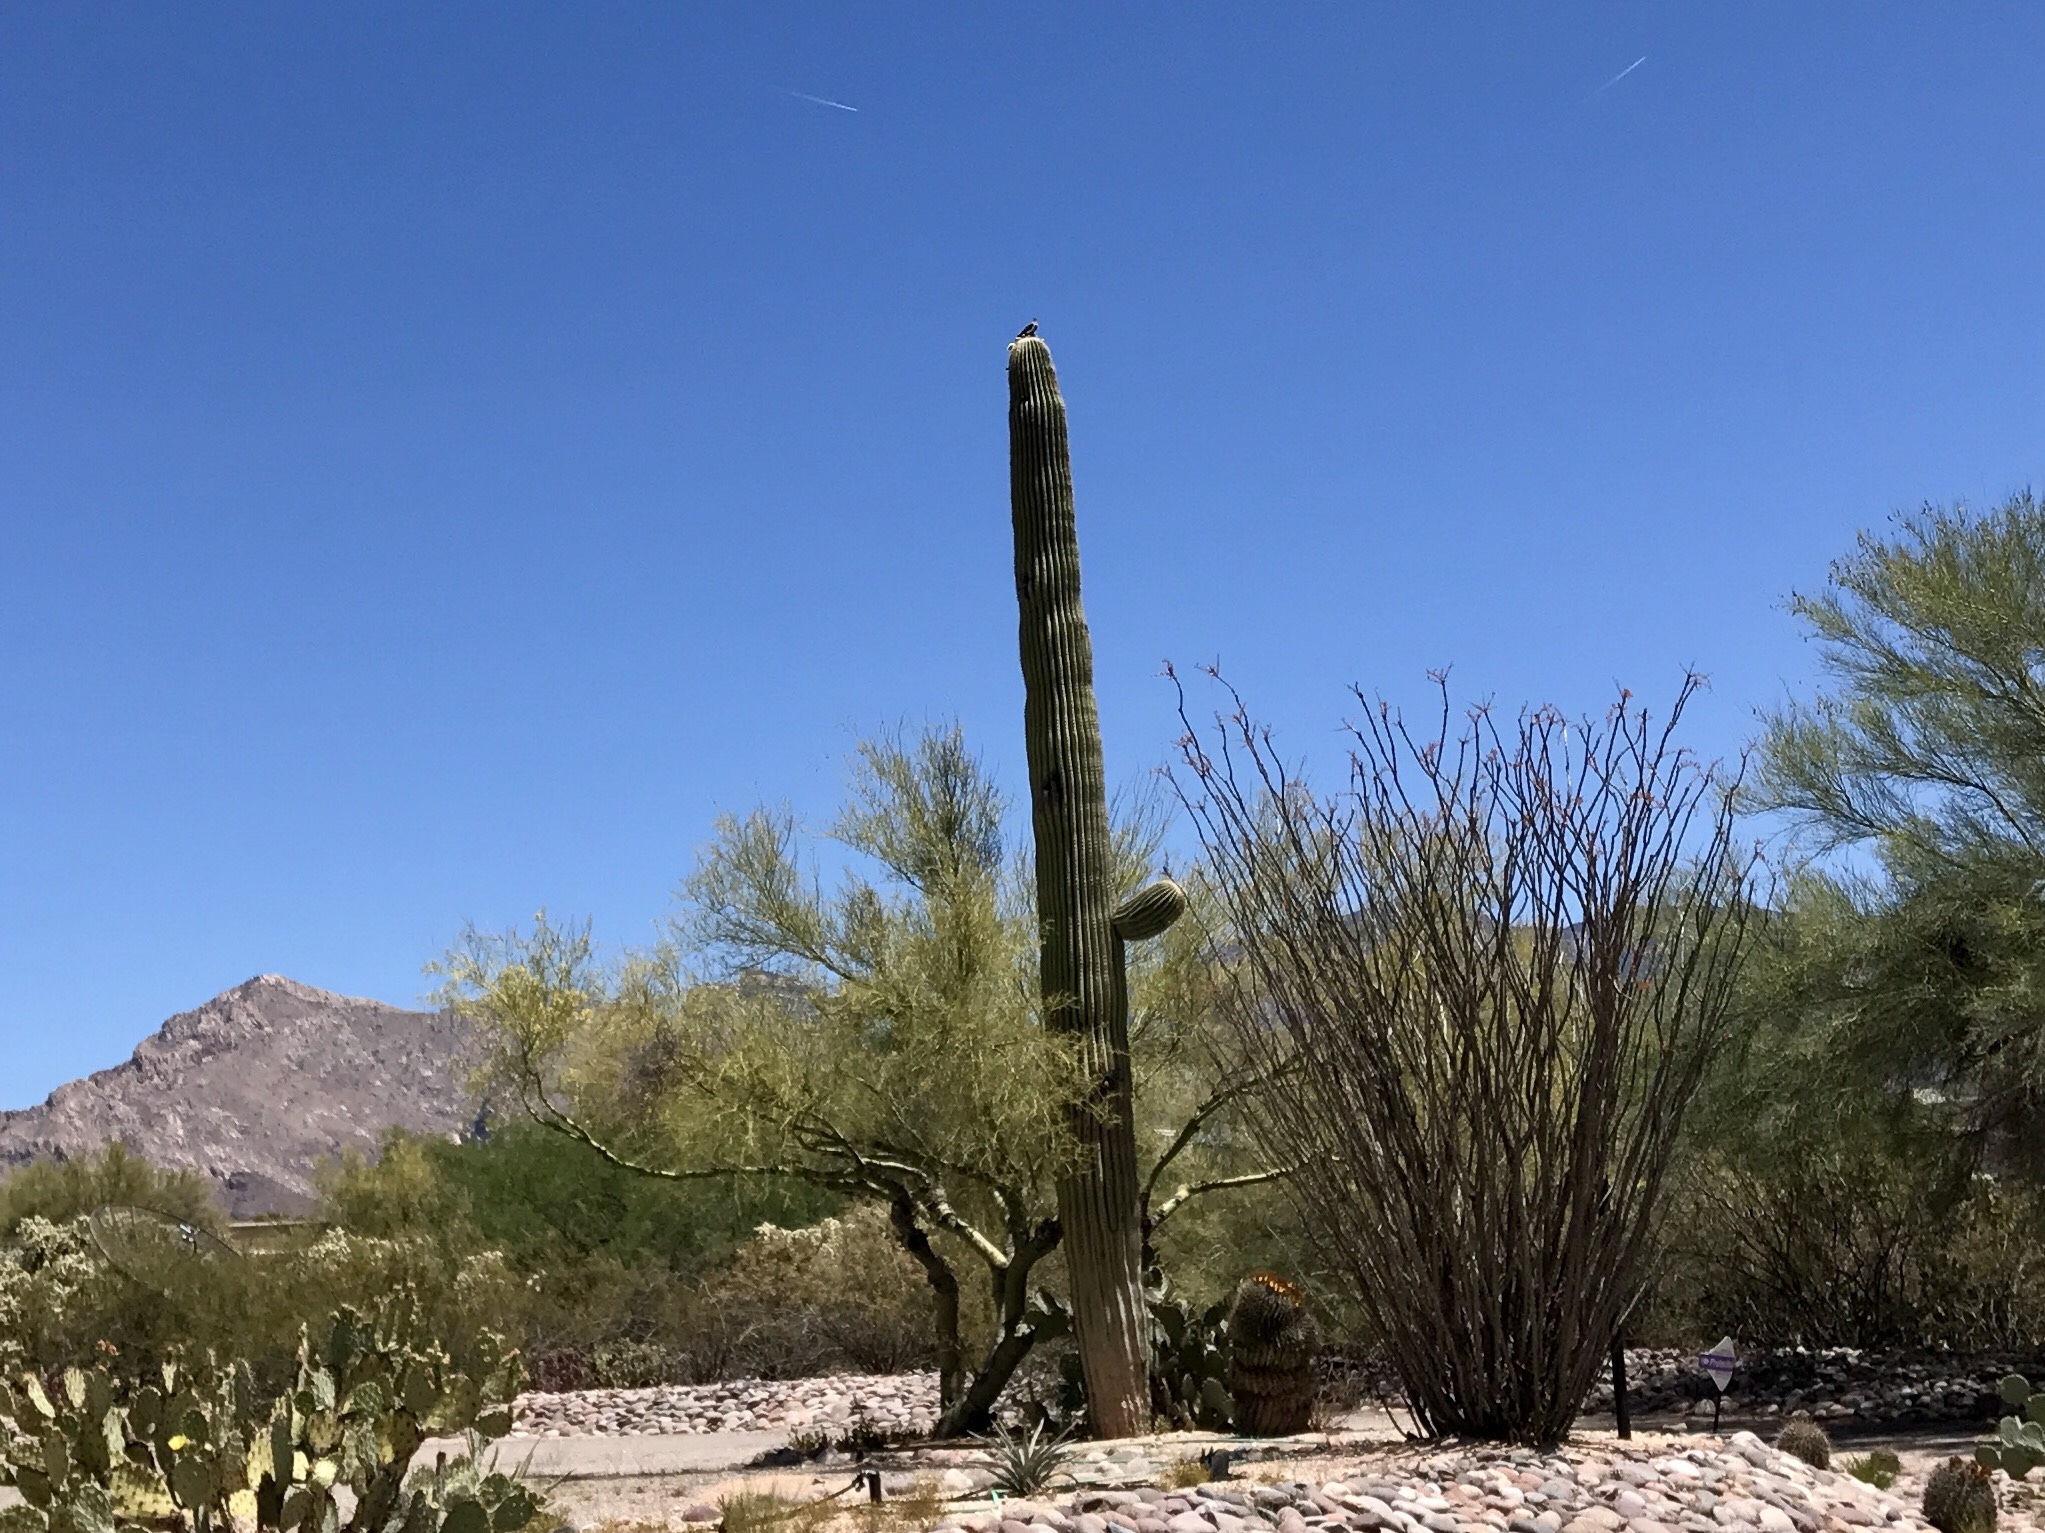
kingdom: Plantae
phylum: Tracheophyta
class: Magnoliopsida
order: Caryophyllales
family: Cactaceae
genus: Carnegiea
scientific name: Carnegiea gigantea
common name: Saguaro
